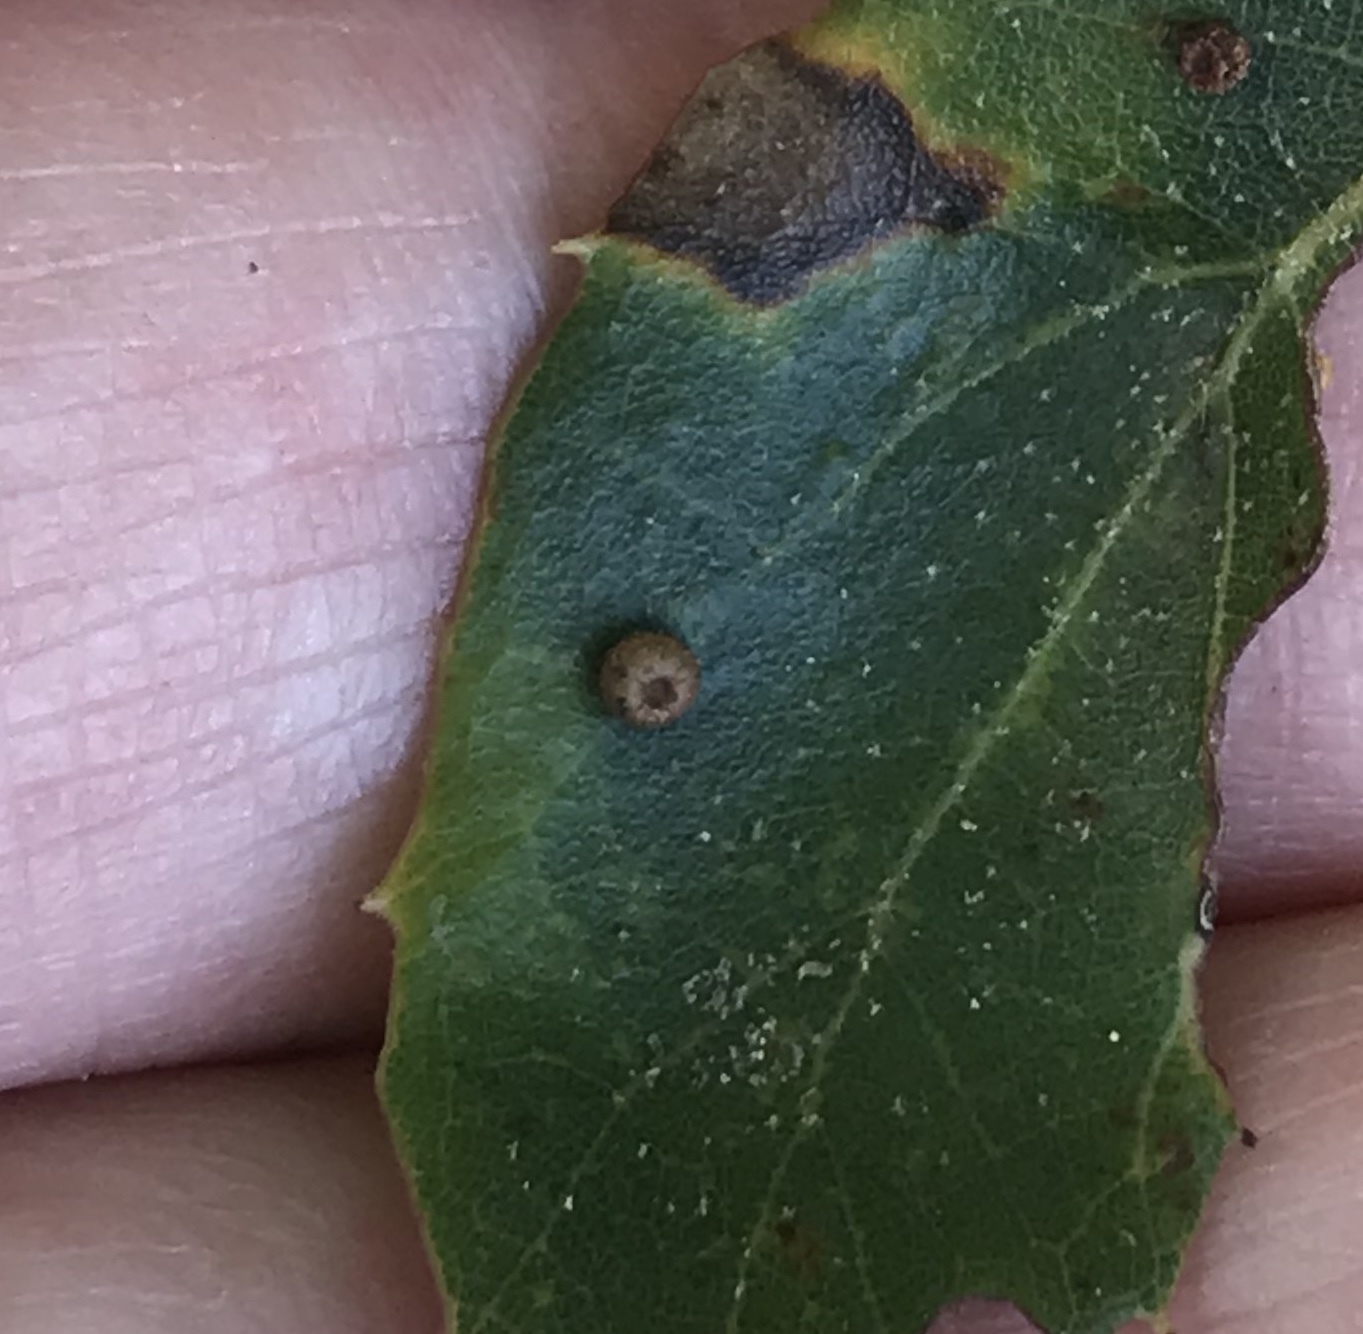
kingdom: Animalia
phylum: Arthropoda
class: Insecta
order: Hymenoptera
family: Cynipidae
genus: Dryocosmus
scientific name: Dryocosmus
